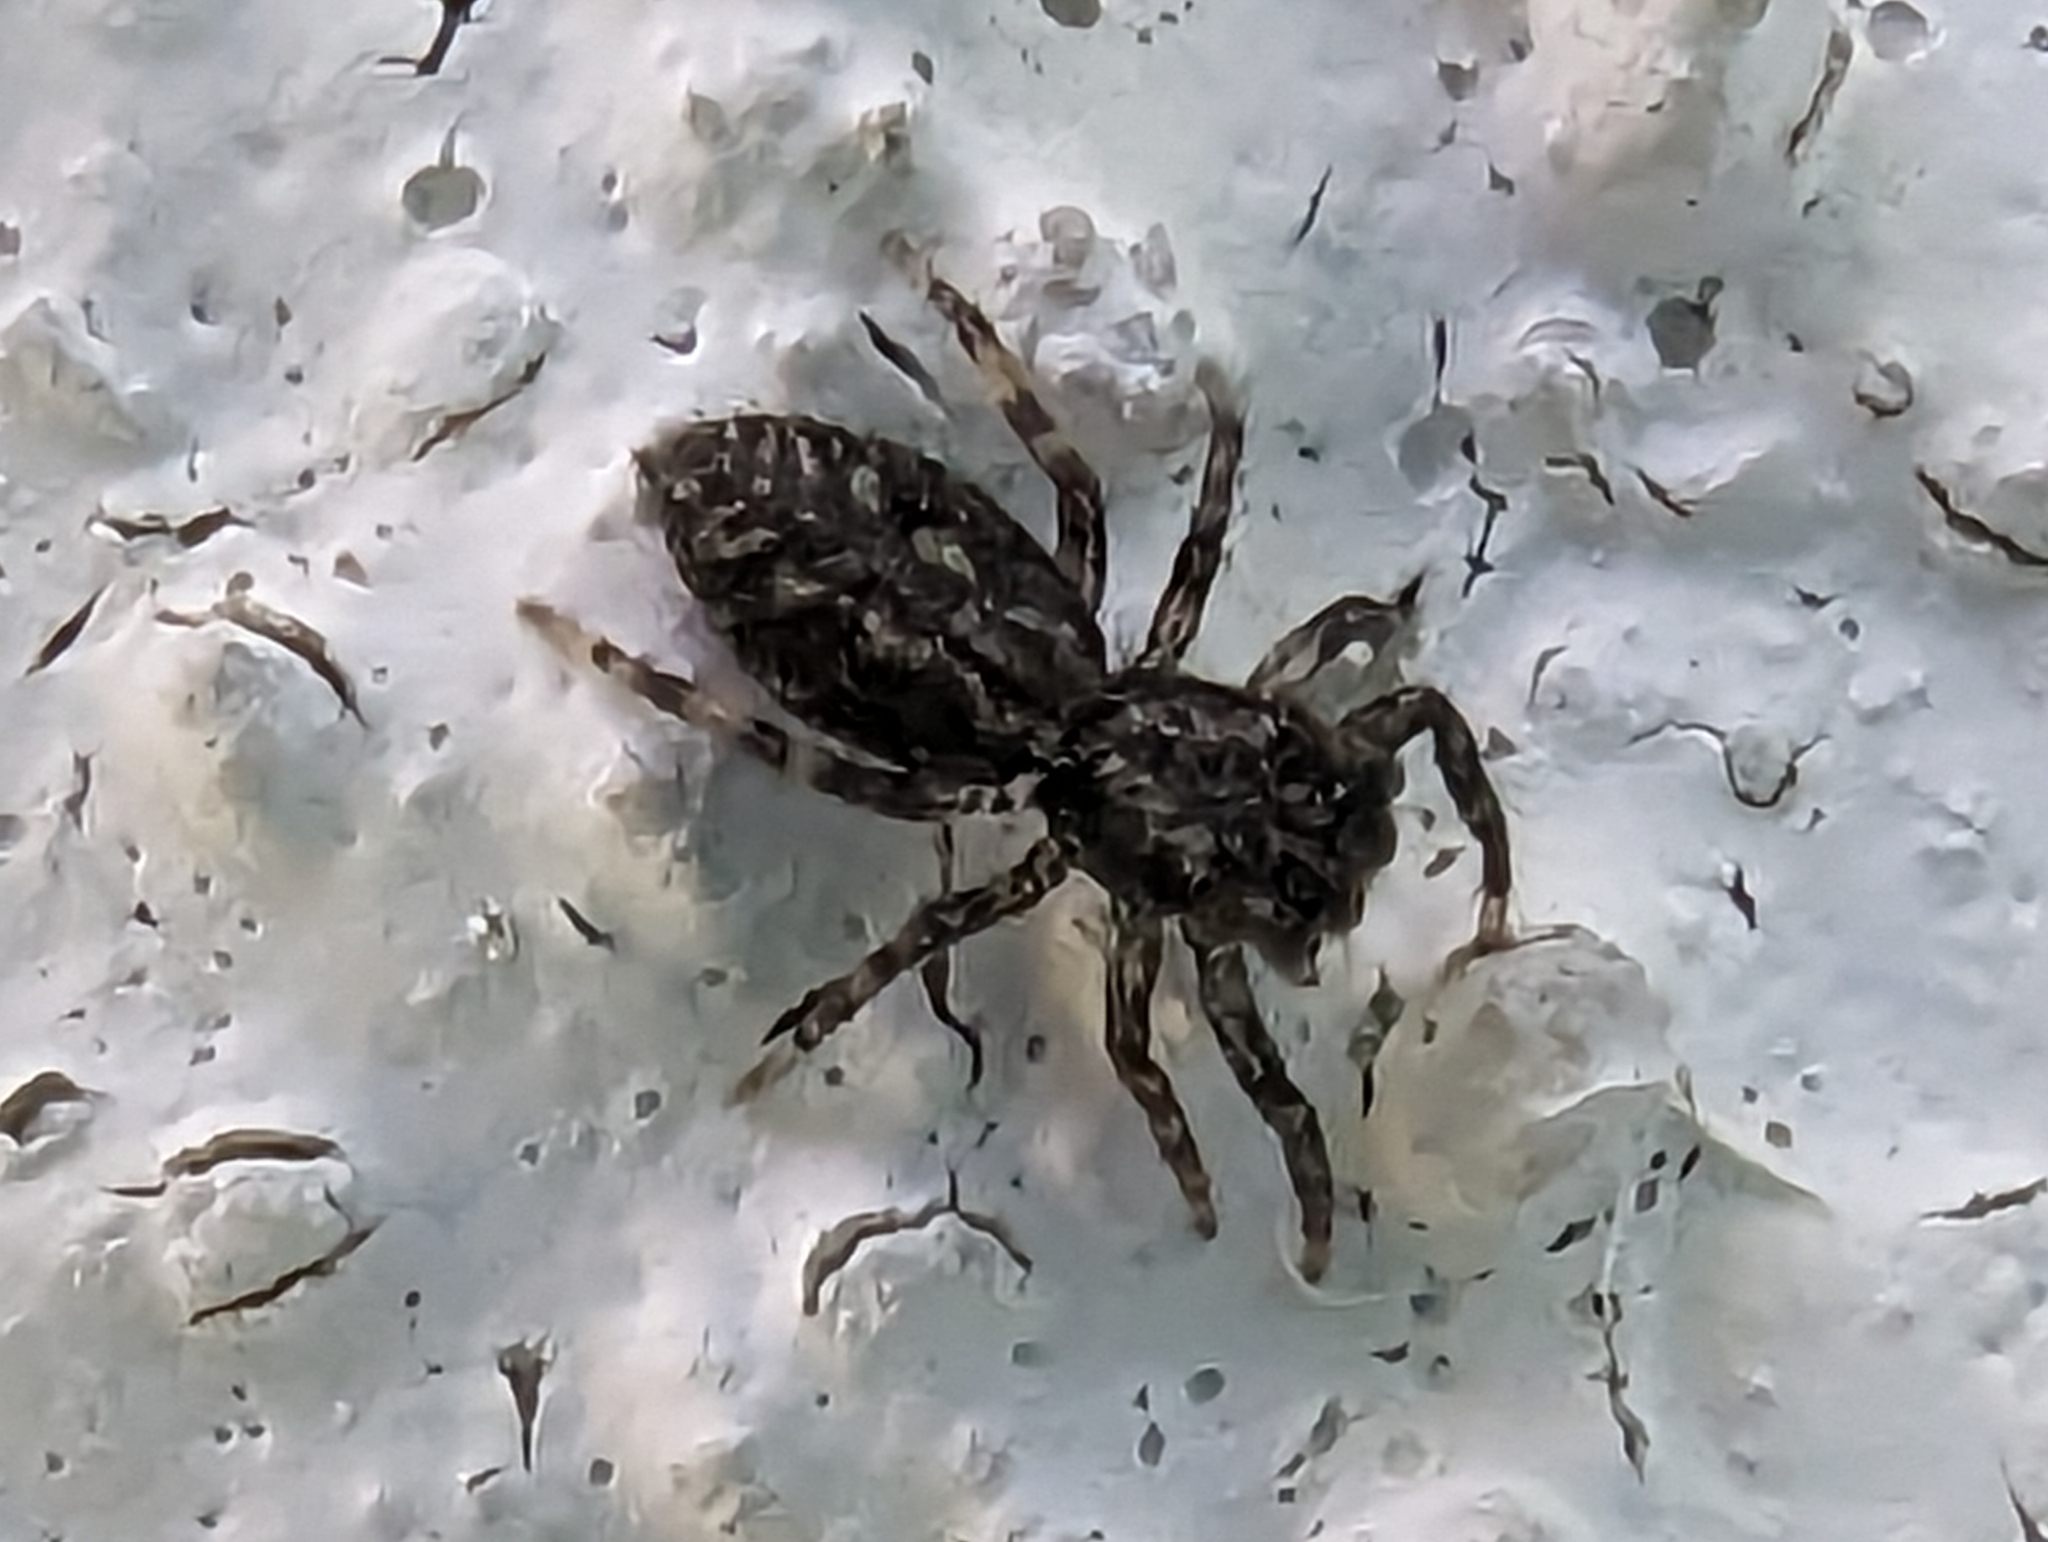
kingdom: Animalia
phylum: Arthropoda
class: Arachnida
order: Araneae
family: Salticidae
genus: Platycryptus
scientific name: Platycryptus californicus
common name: Jumping spiders
